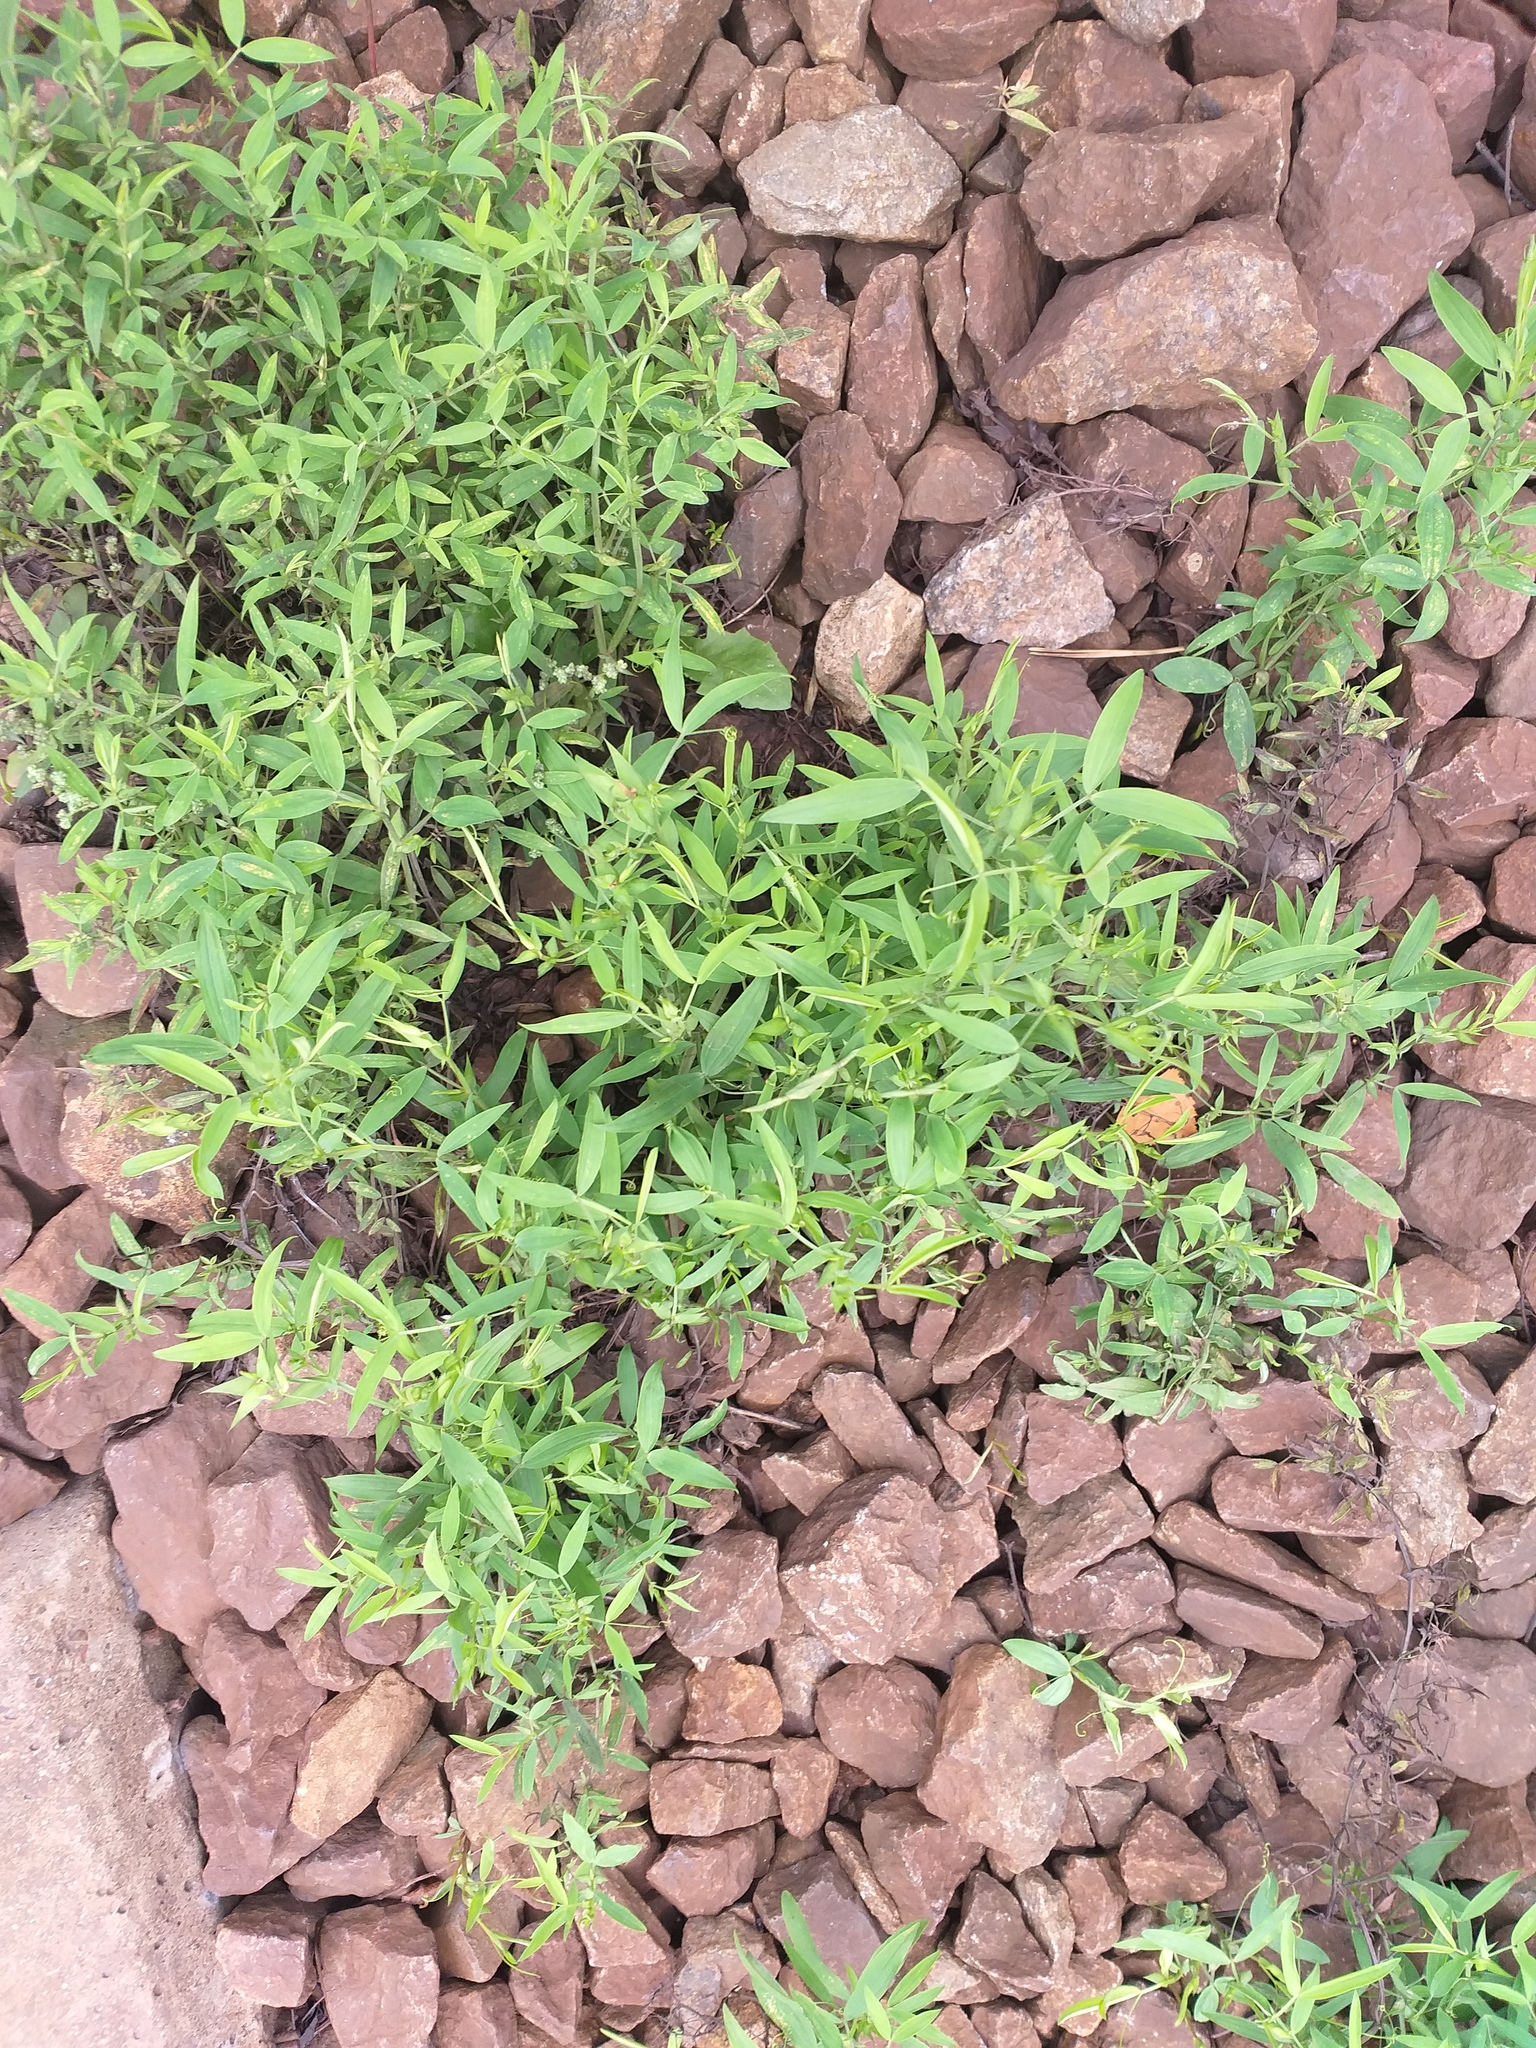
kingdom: Plantae
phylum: Tracheophyta
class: Magnoliopsida
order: Fabales
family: Fabaceae
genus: Lathyrus
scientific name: Lathyrus pratensis
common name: Meadow vetchling
